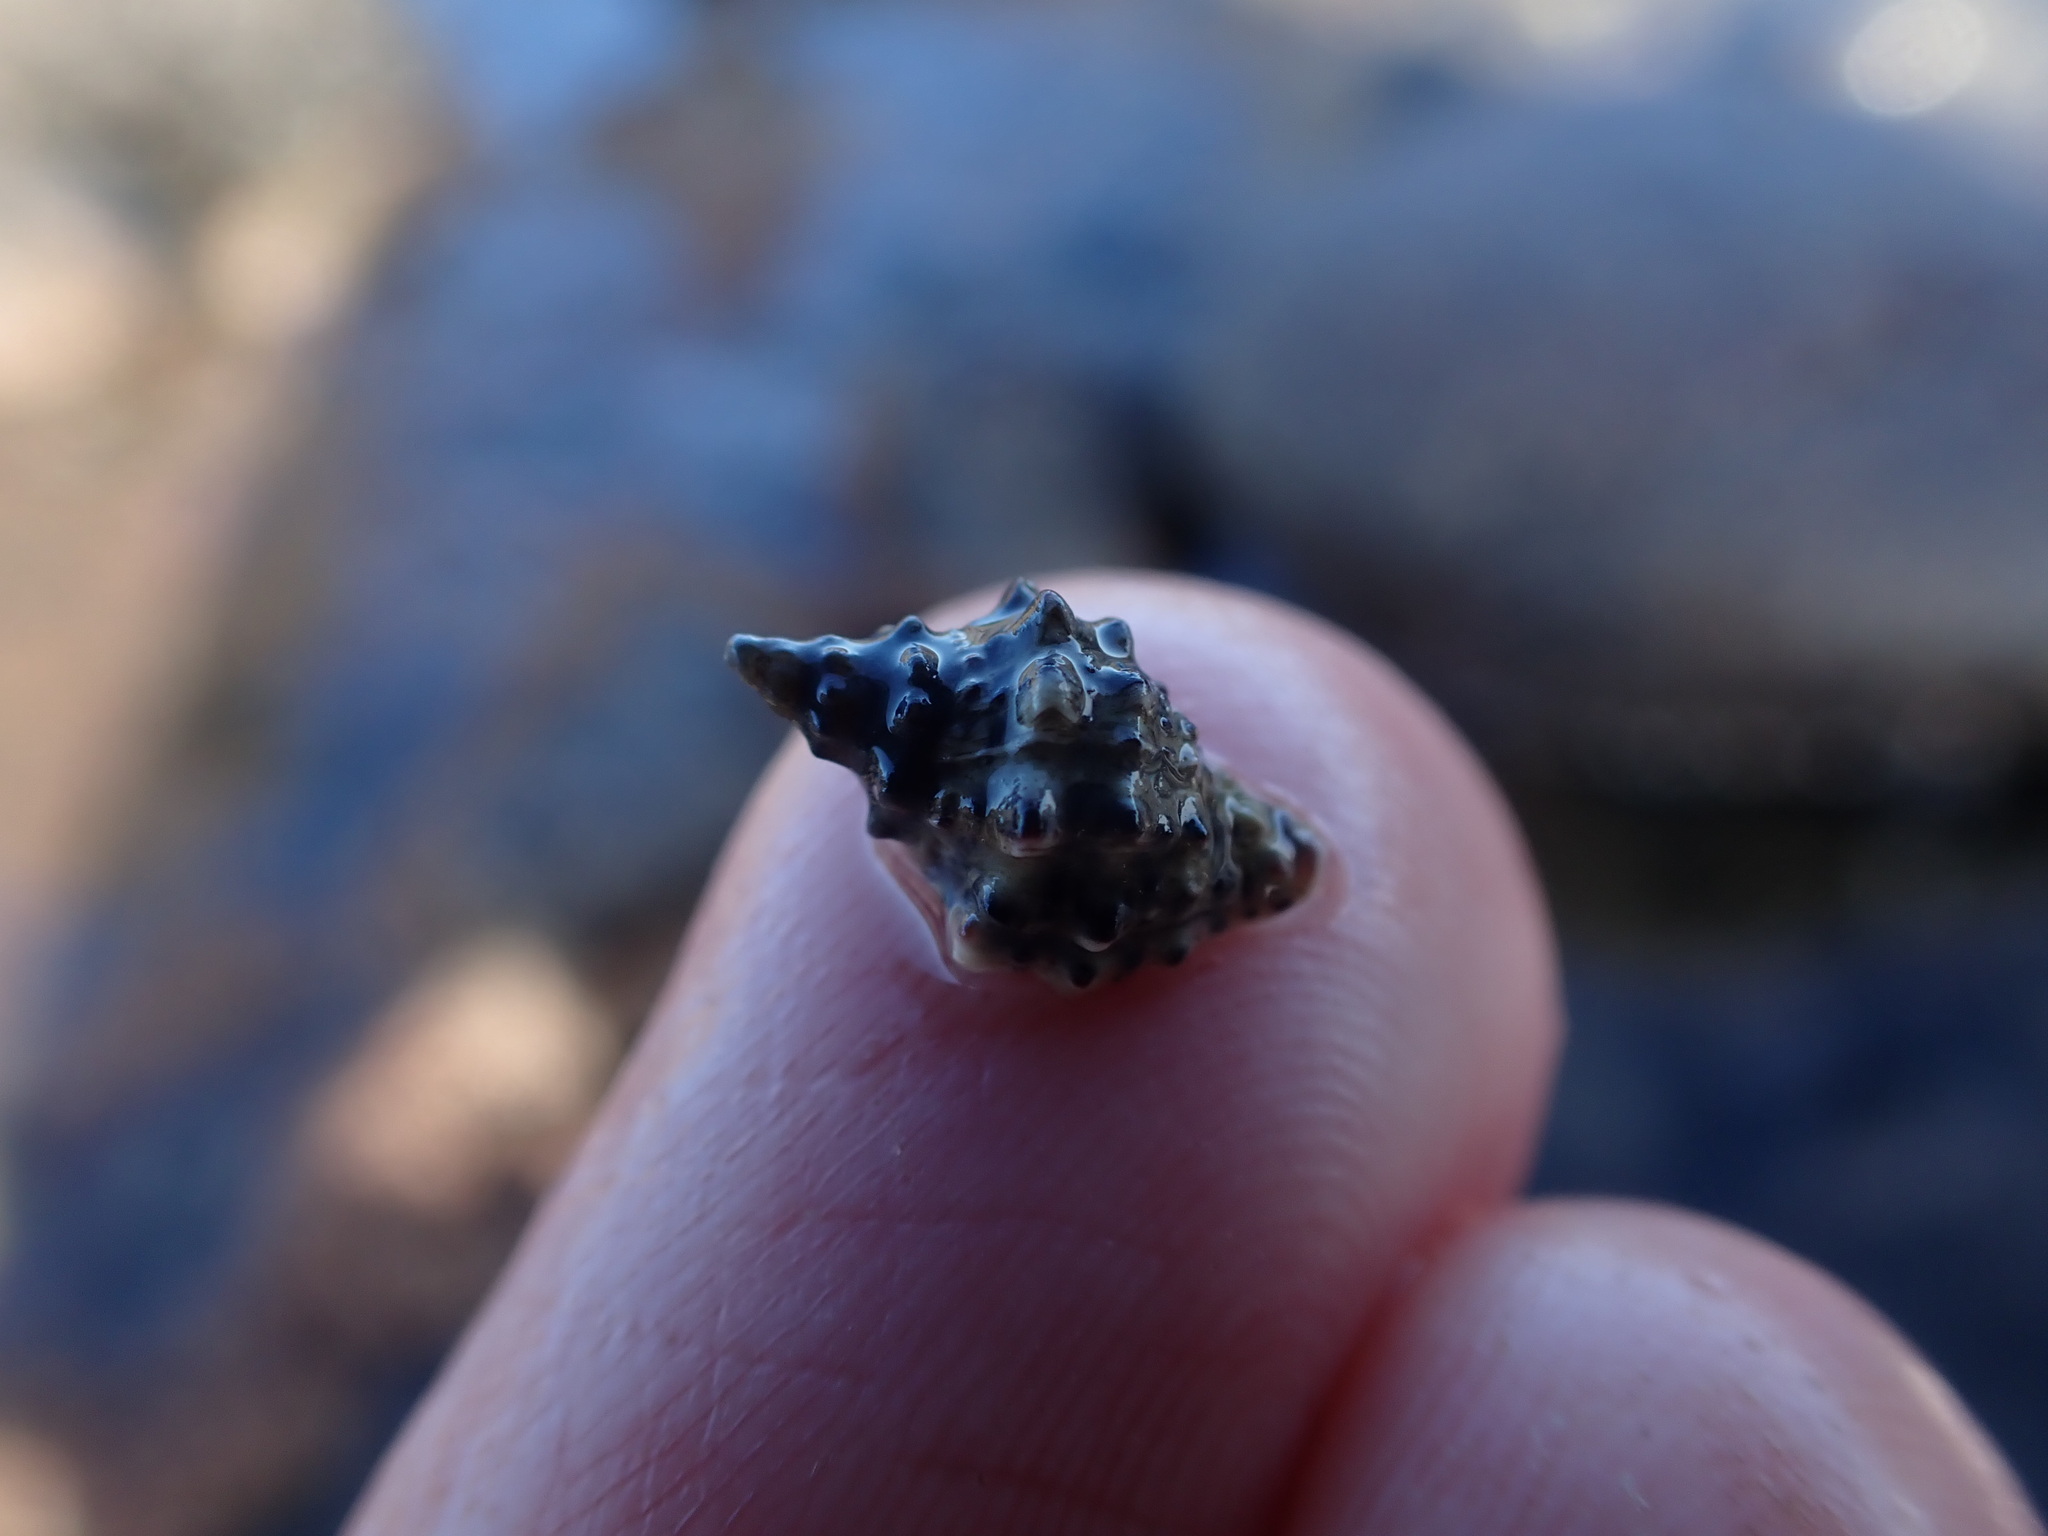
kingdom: Animalia
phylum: Mollusca
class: Gastropoda
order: Neogastropoda
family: Muricidae
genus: Haustrum
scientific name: Haustrum scobina
